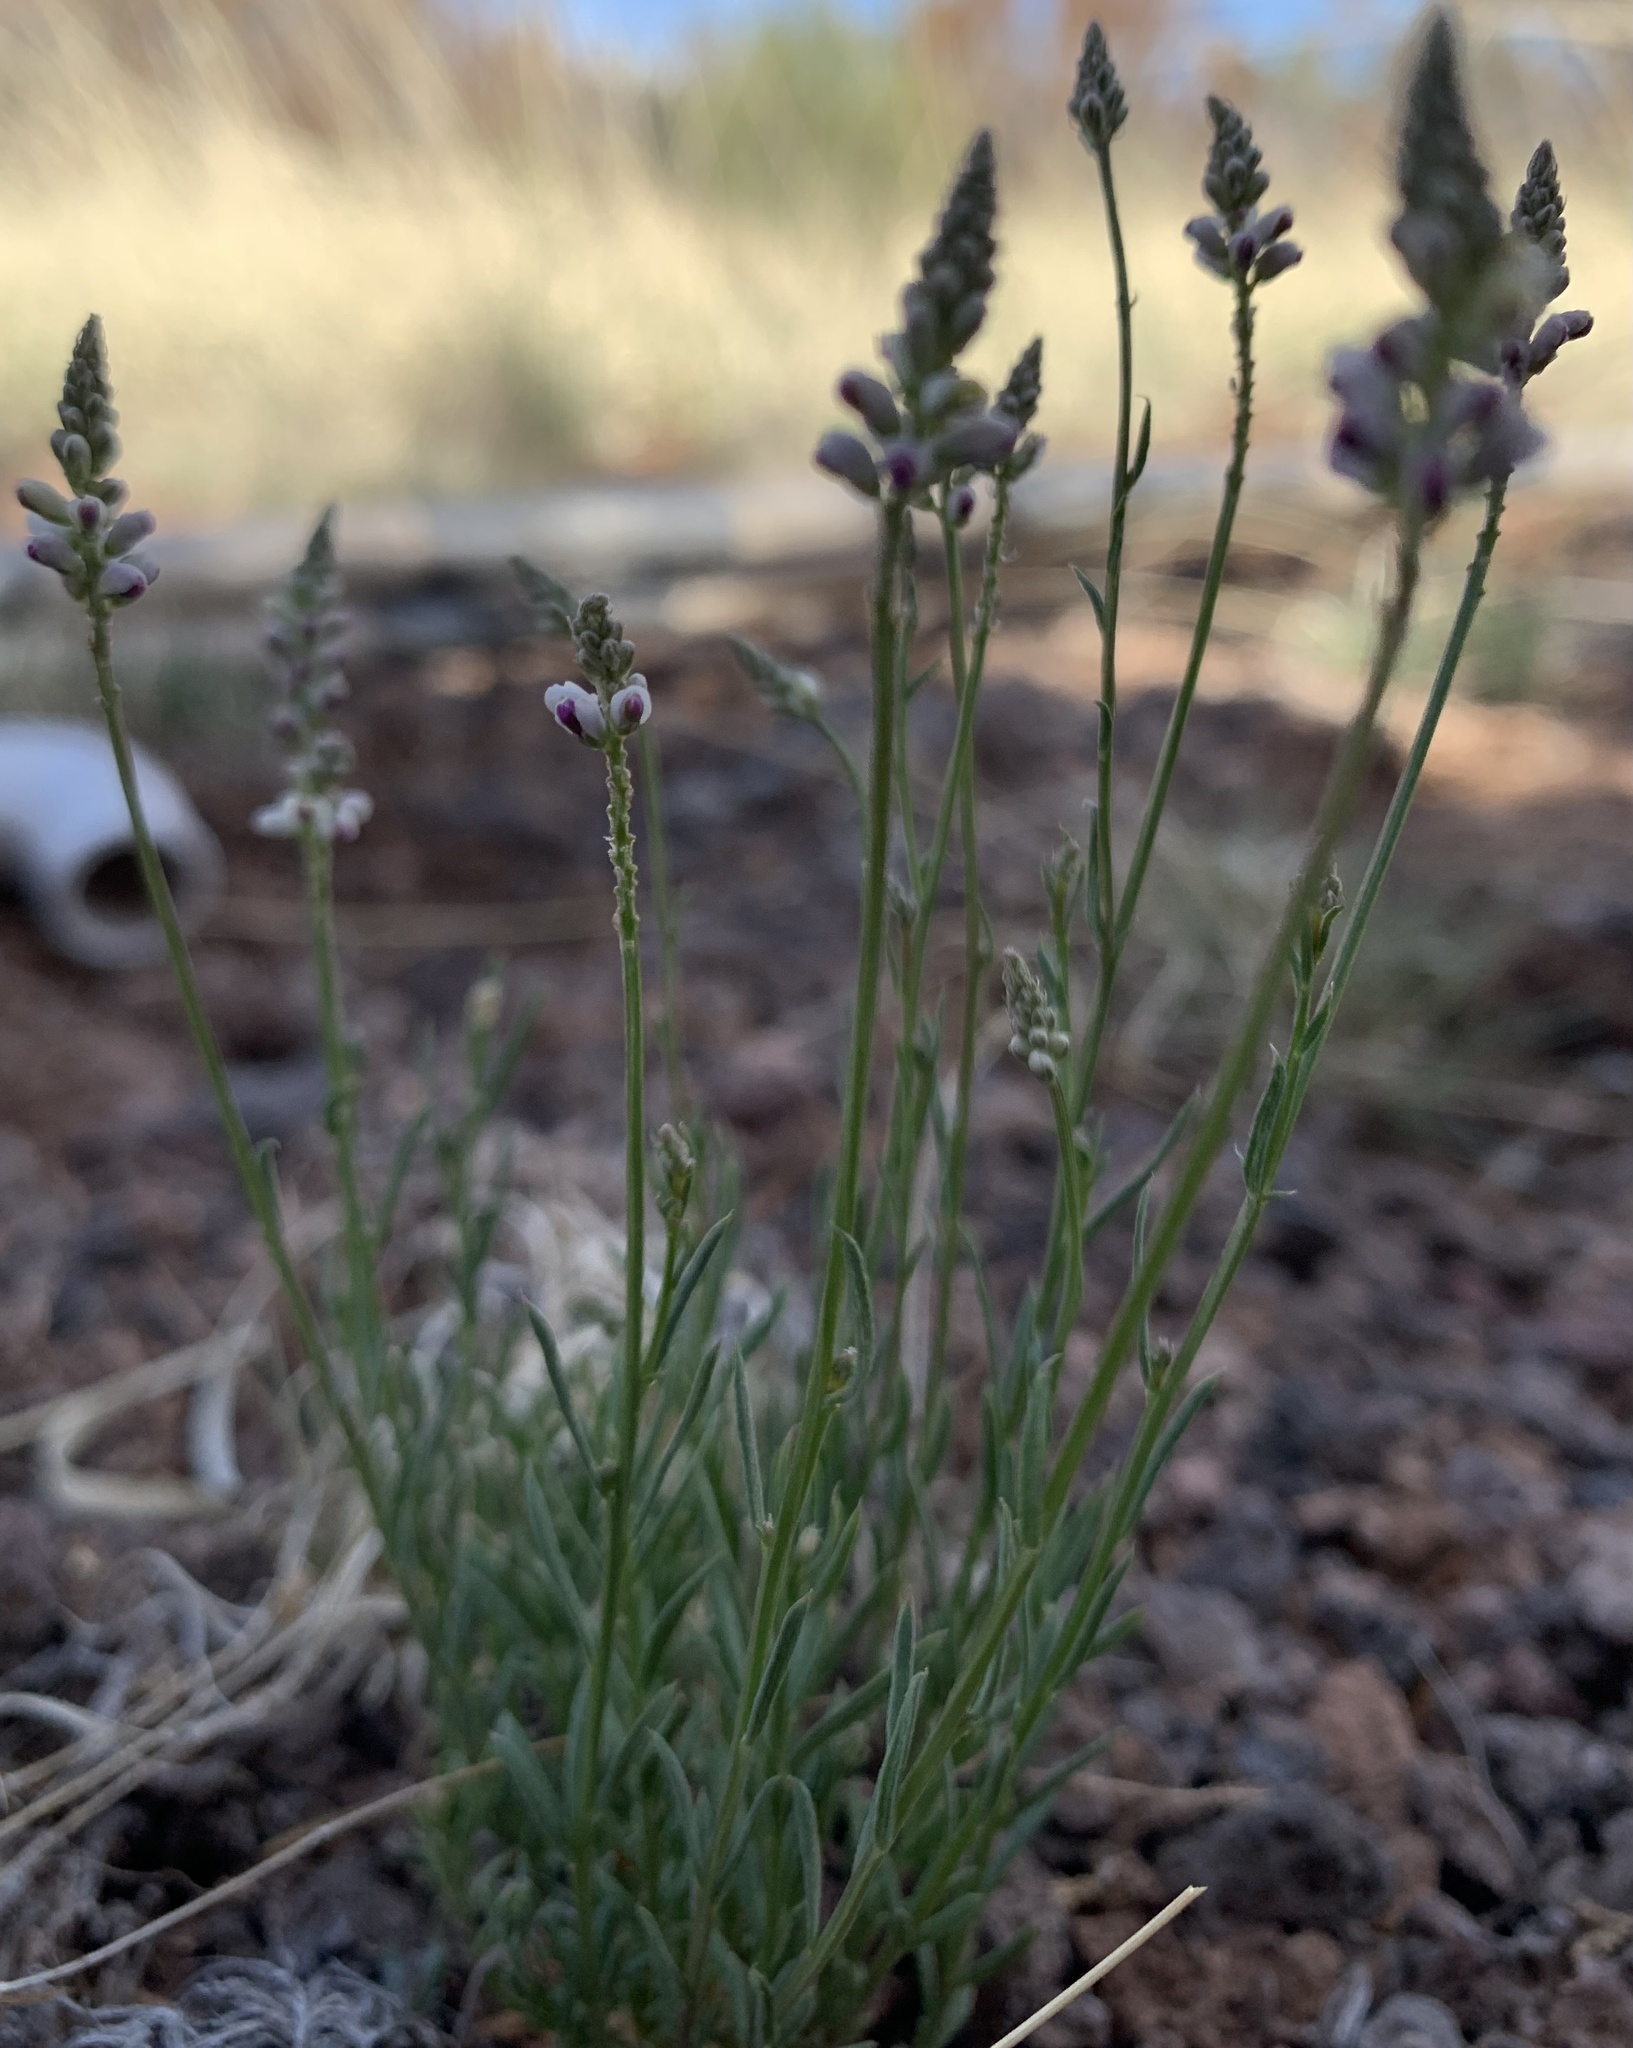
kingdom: Plantae
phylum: Tracheophyta
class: Magnoliopsida
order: Fabales
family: Polygalaceae
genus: Polygala
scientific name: Polygala alba
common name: White milkwort
